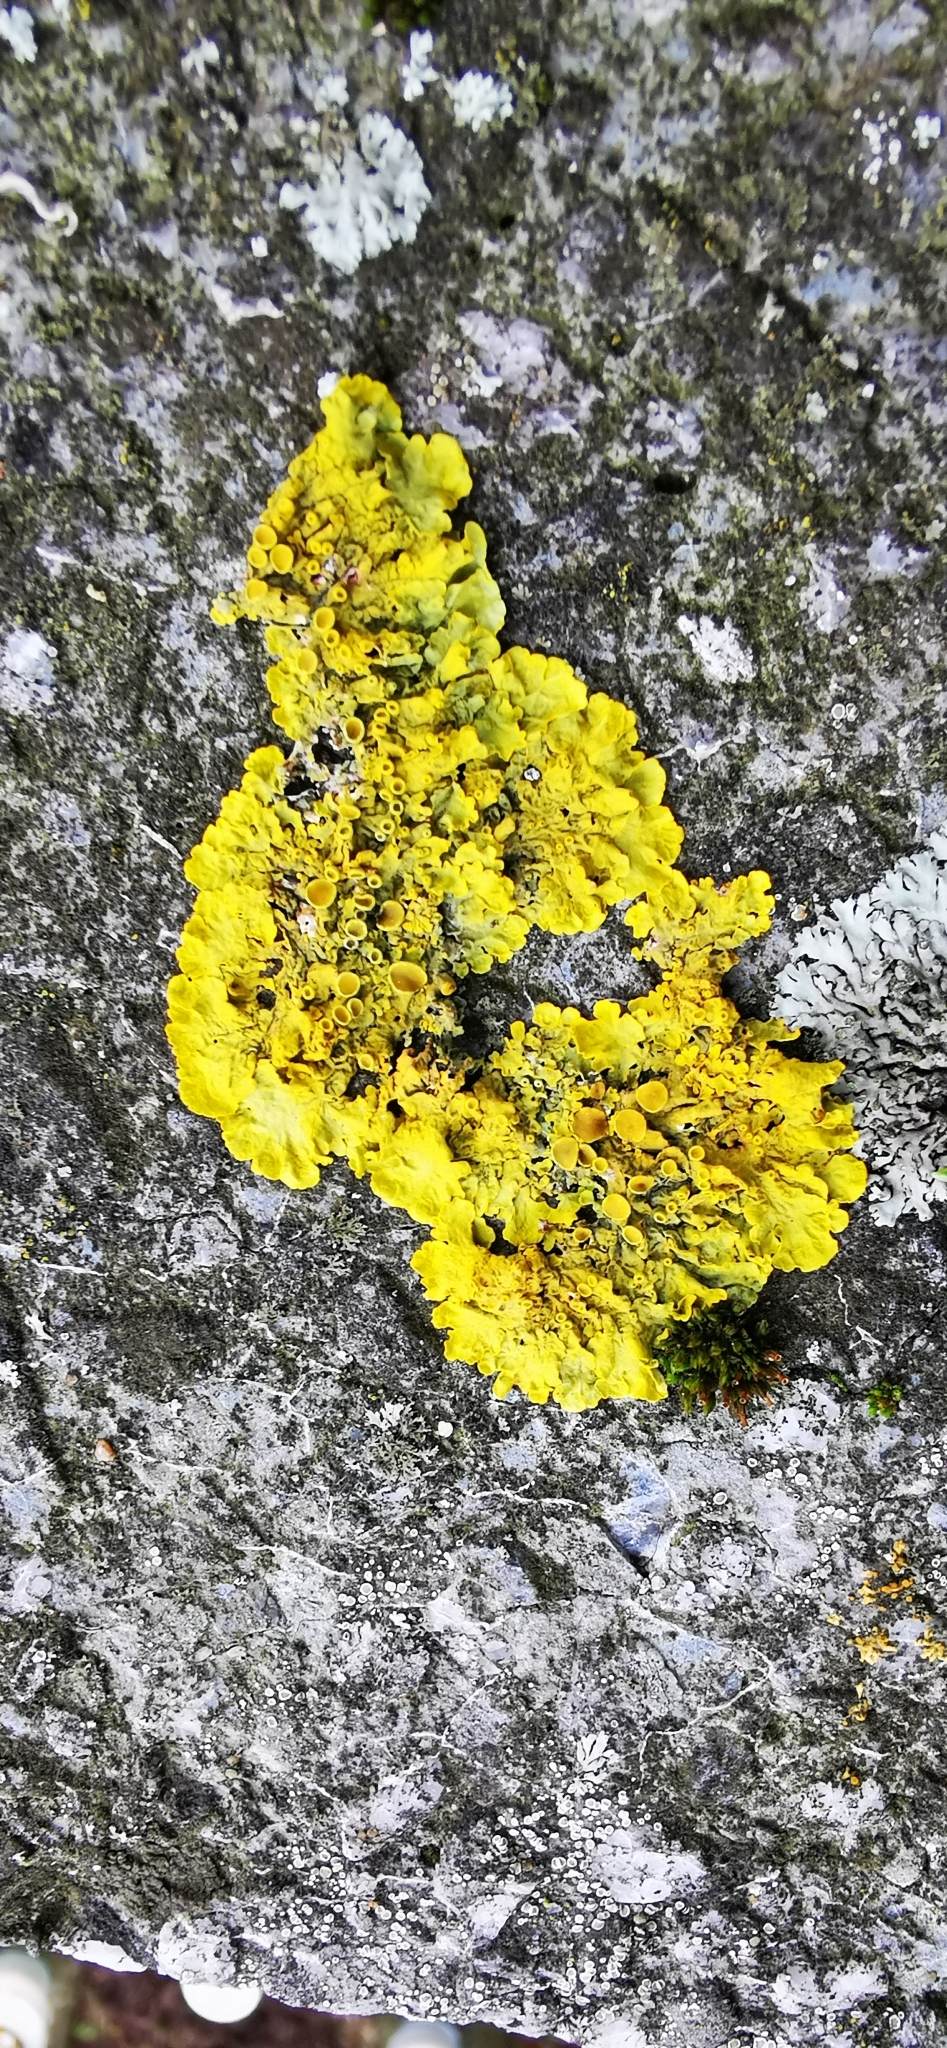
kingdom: Fungi
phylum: Ascomycota
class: Lecanoromycetes
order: Teloschistales
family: Teloschistaceae
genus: Xanthoria
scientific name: Xanthoria parietina
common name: Common orange lichen
